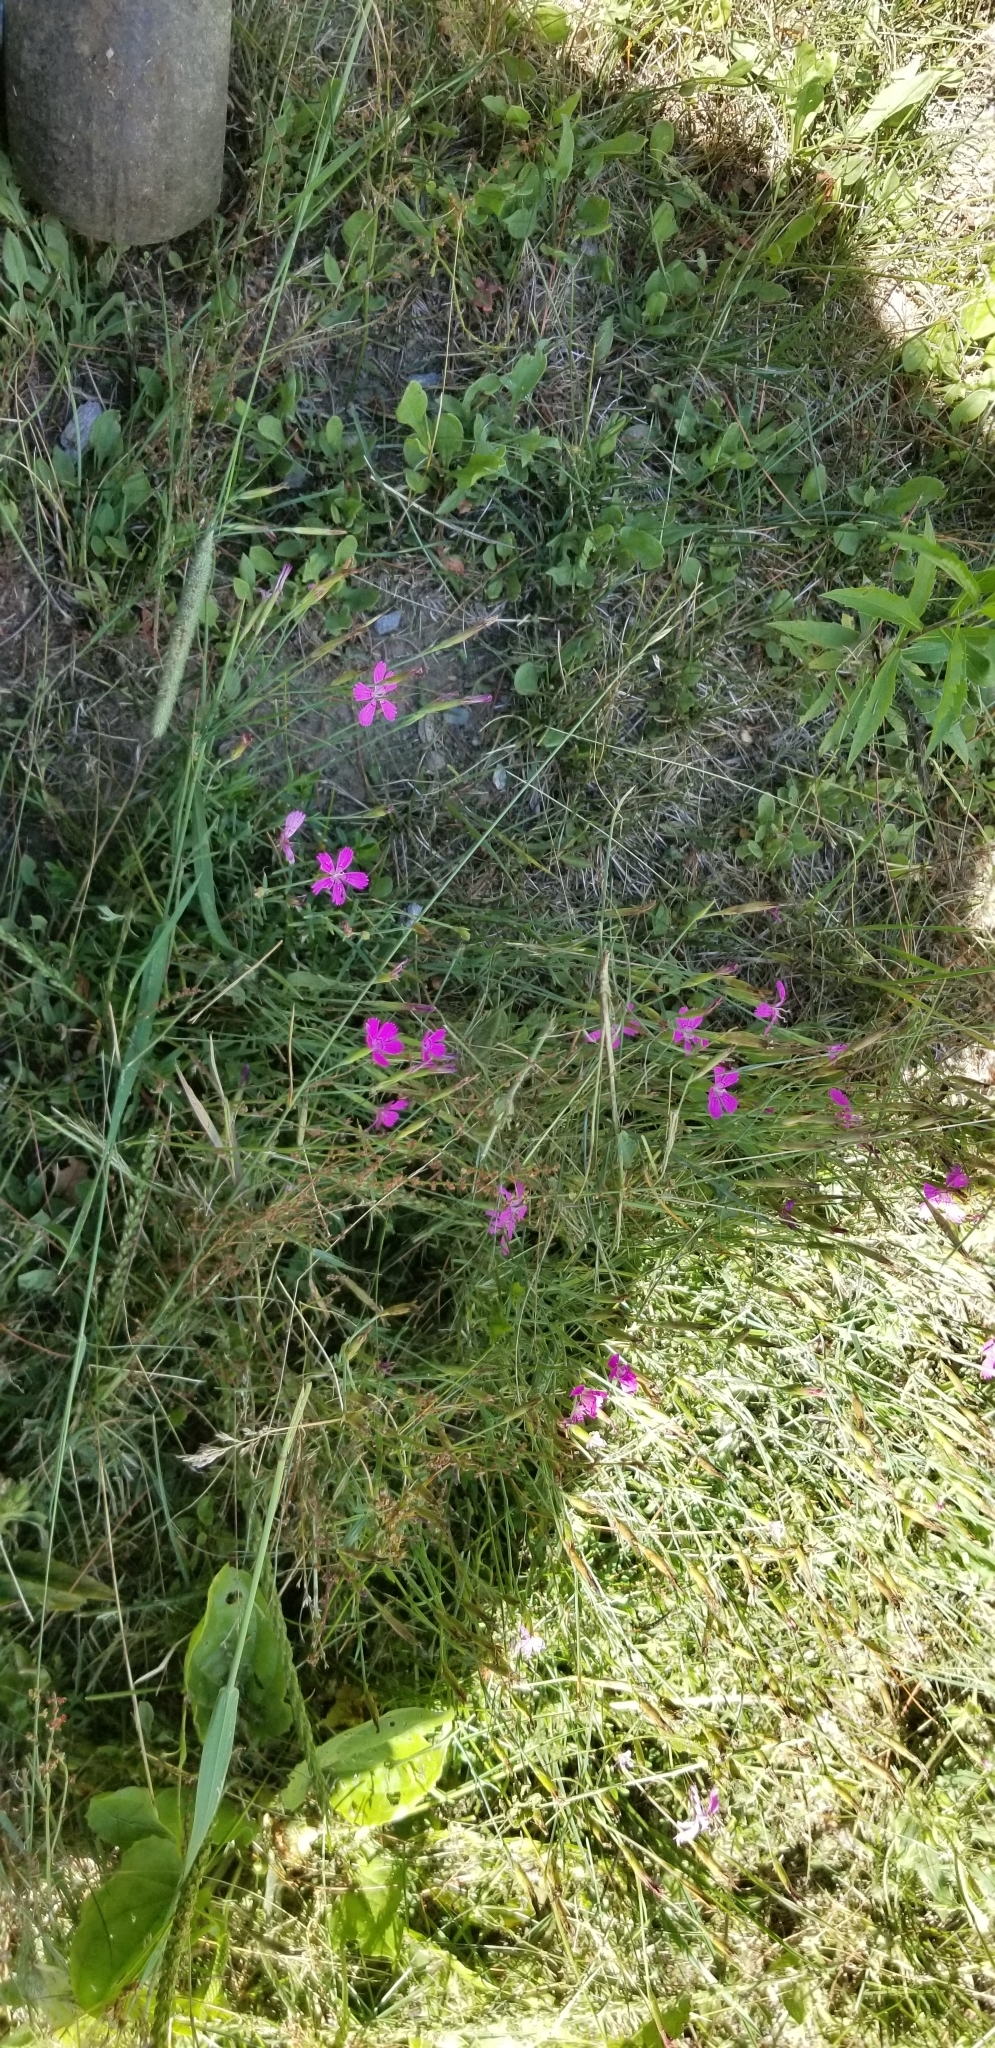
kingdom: Plantae
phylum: Tracheophyta
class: Magnoliopsida
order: Caryophyllales
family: Caryophyllaceae
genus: Dianthus
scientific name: Dianthus deltoides
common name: Maiden pink
